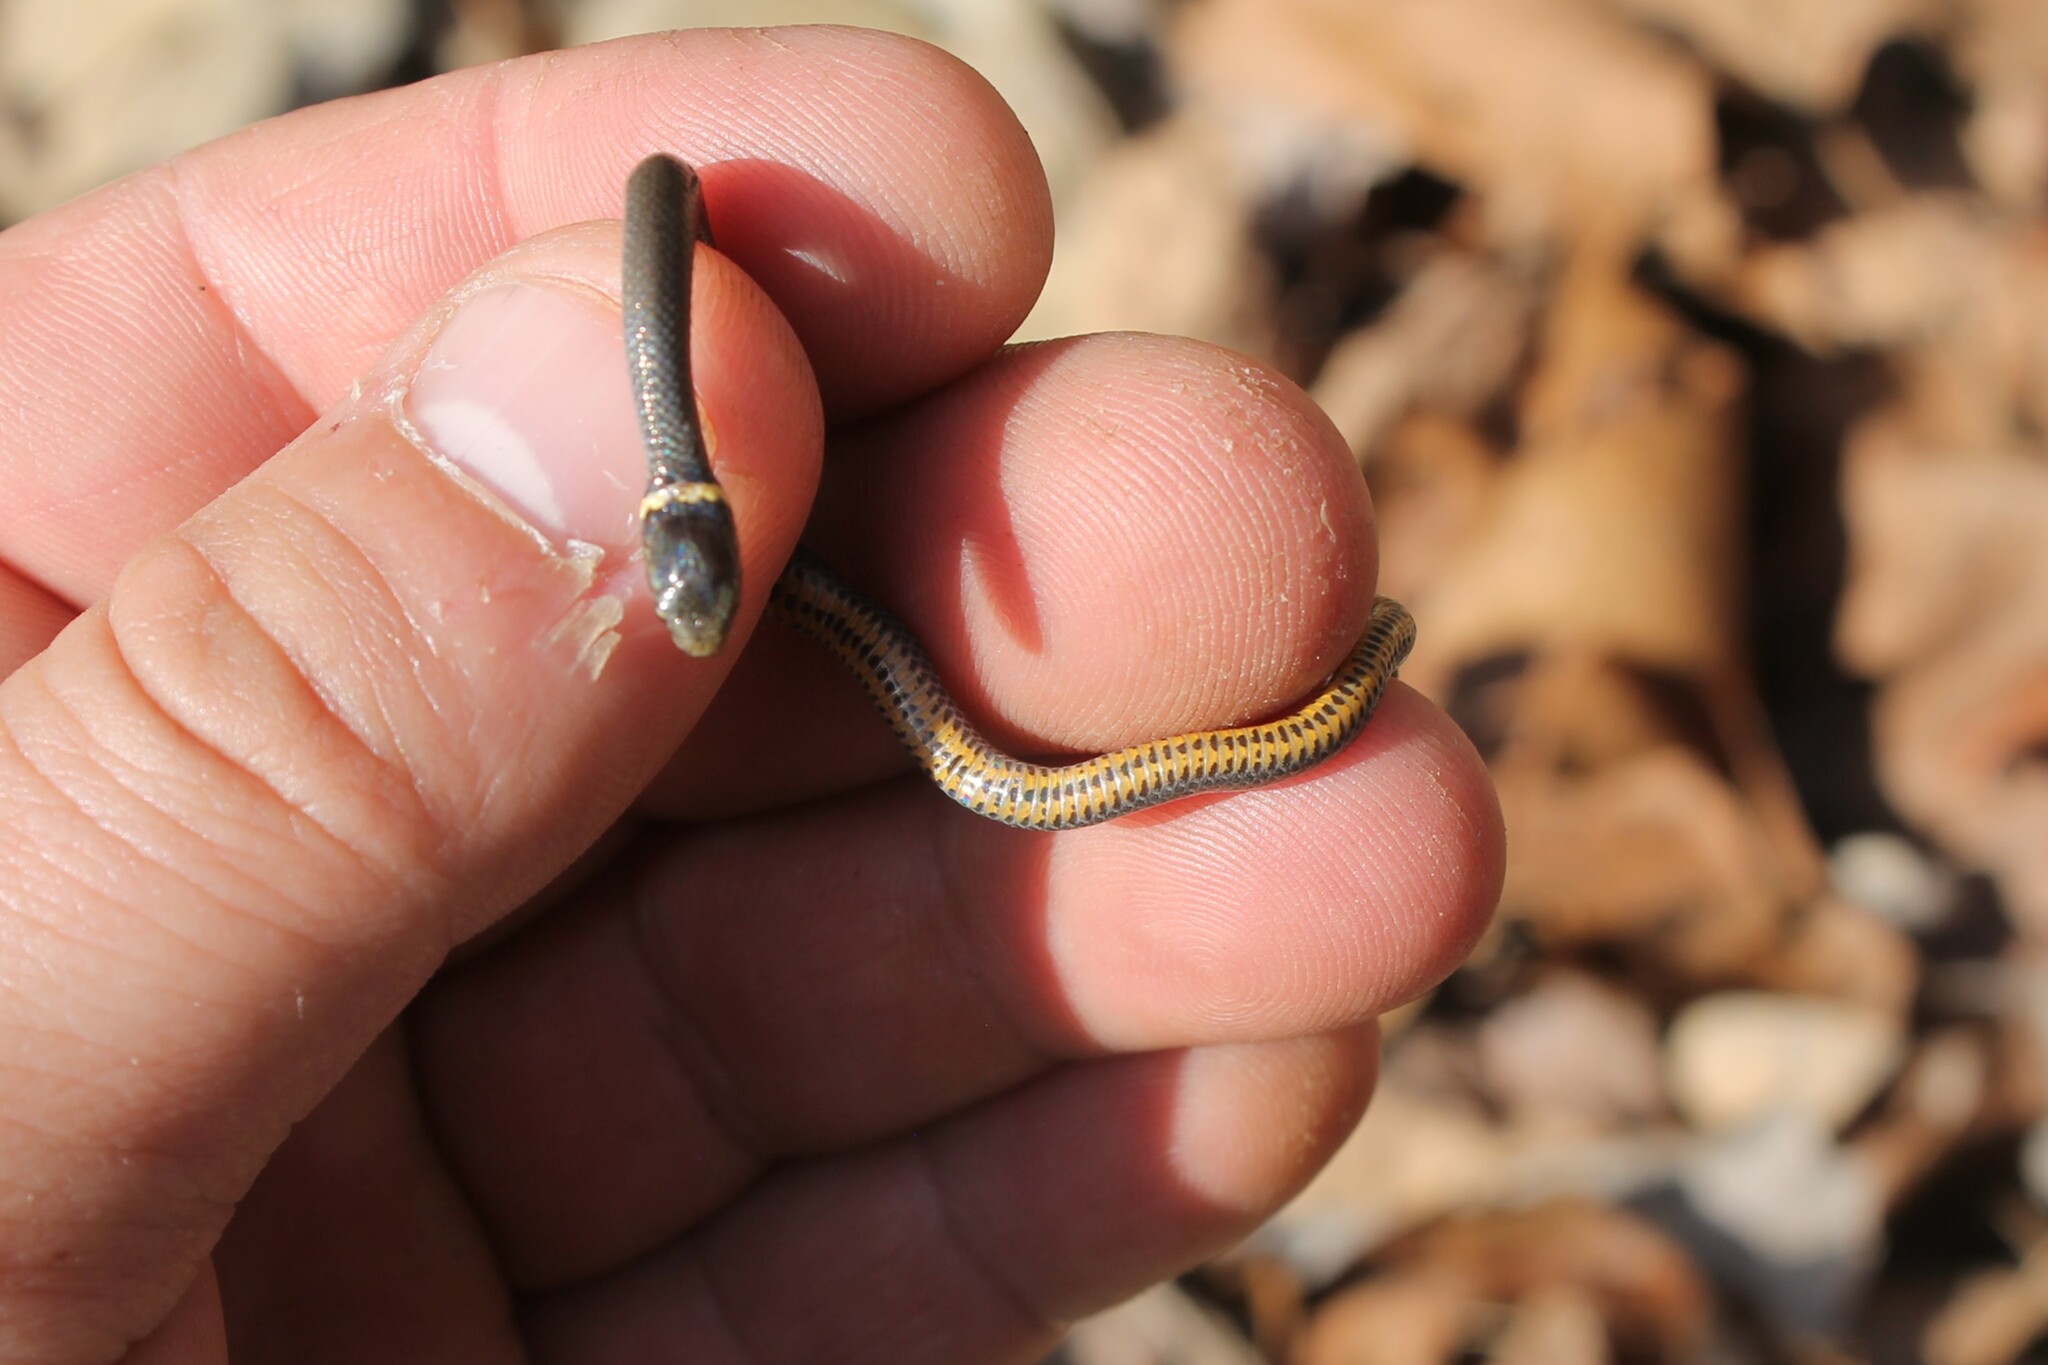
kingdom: Animalia
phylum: Chordata
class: Squamata
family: Colubridae
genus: Diadophis
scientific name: Diadophis punctatus
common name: Ringneck snake
